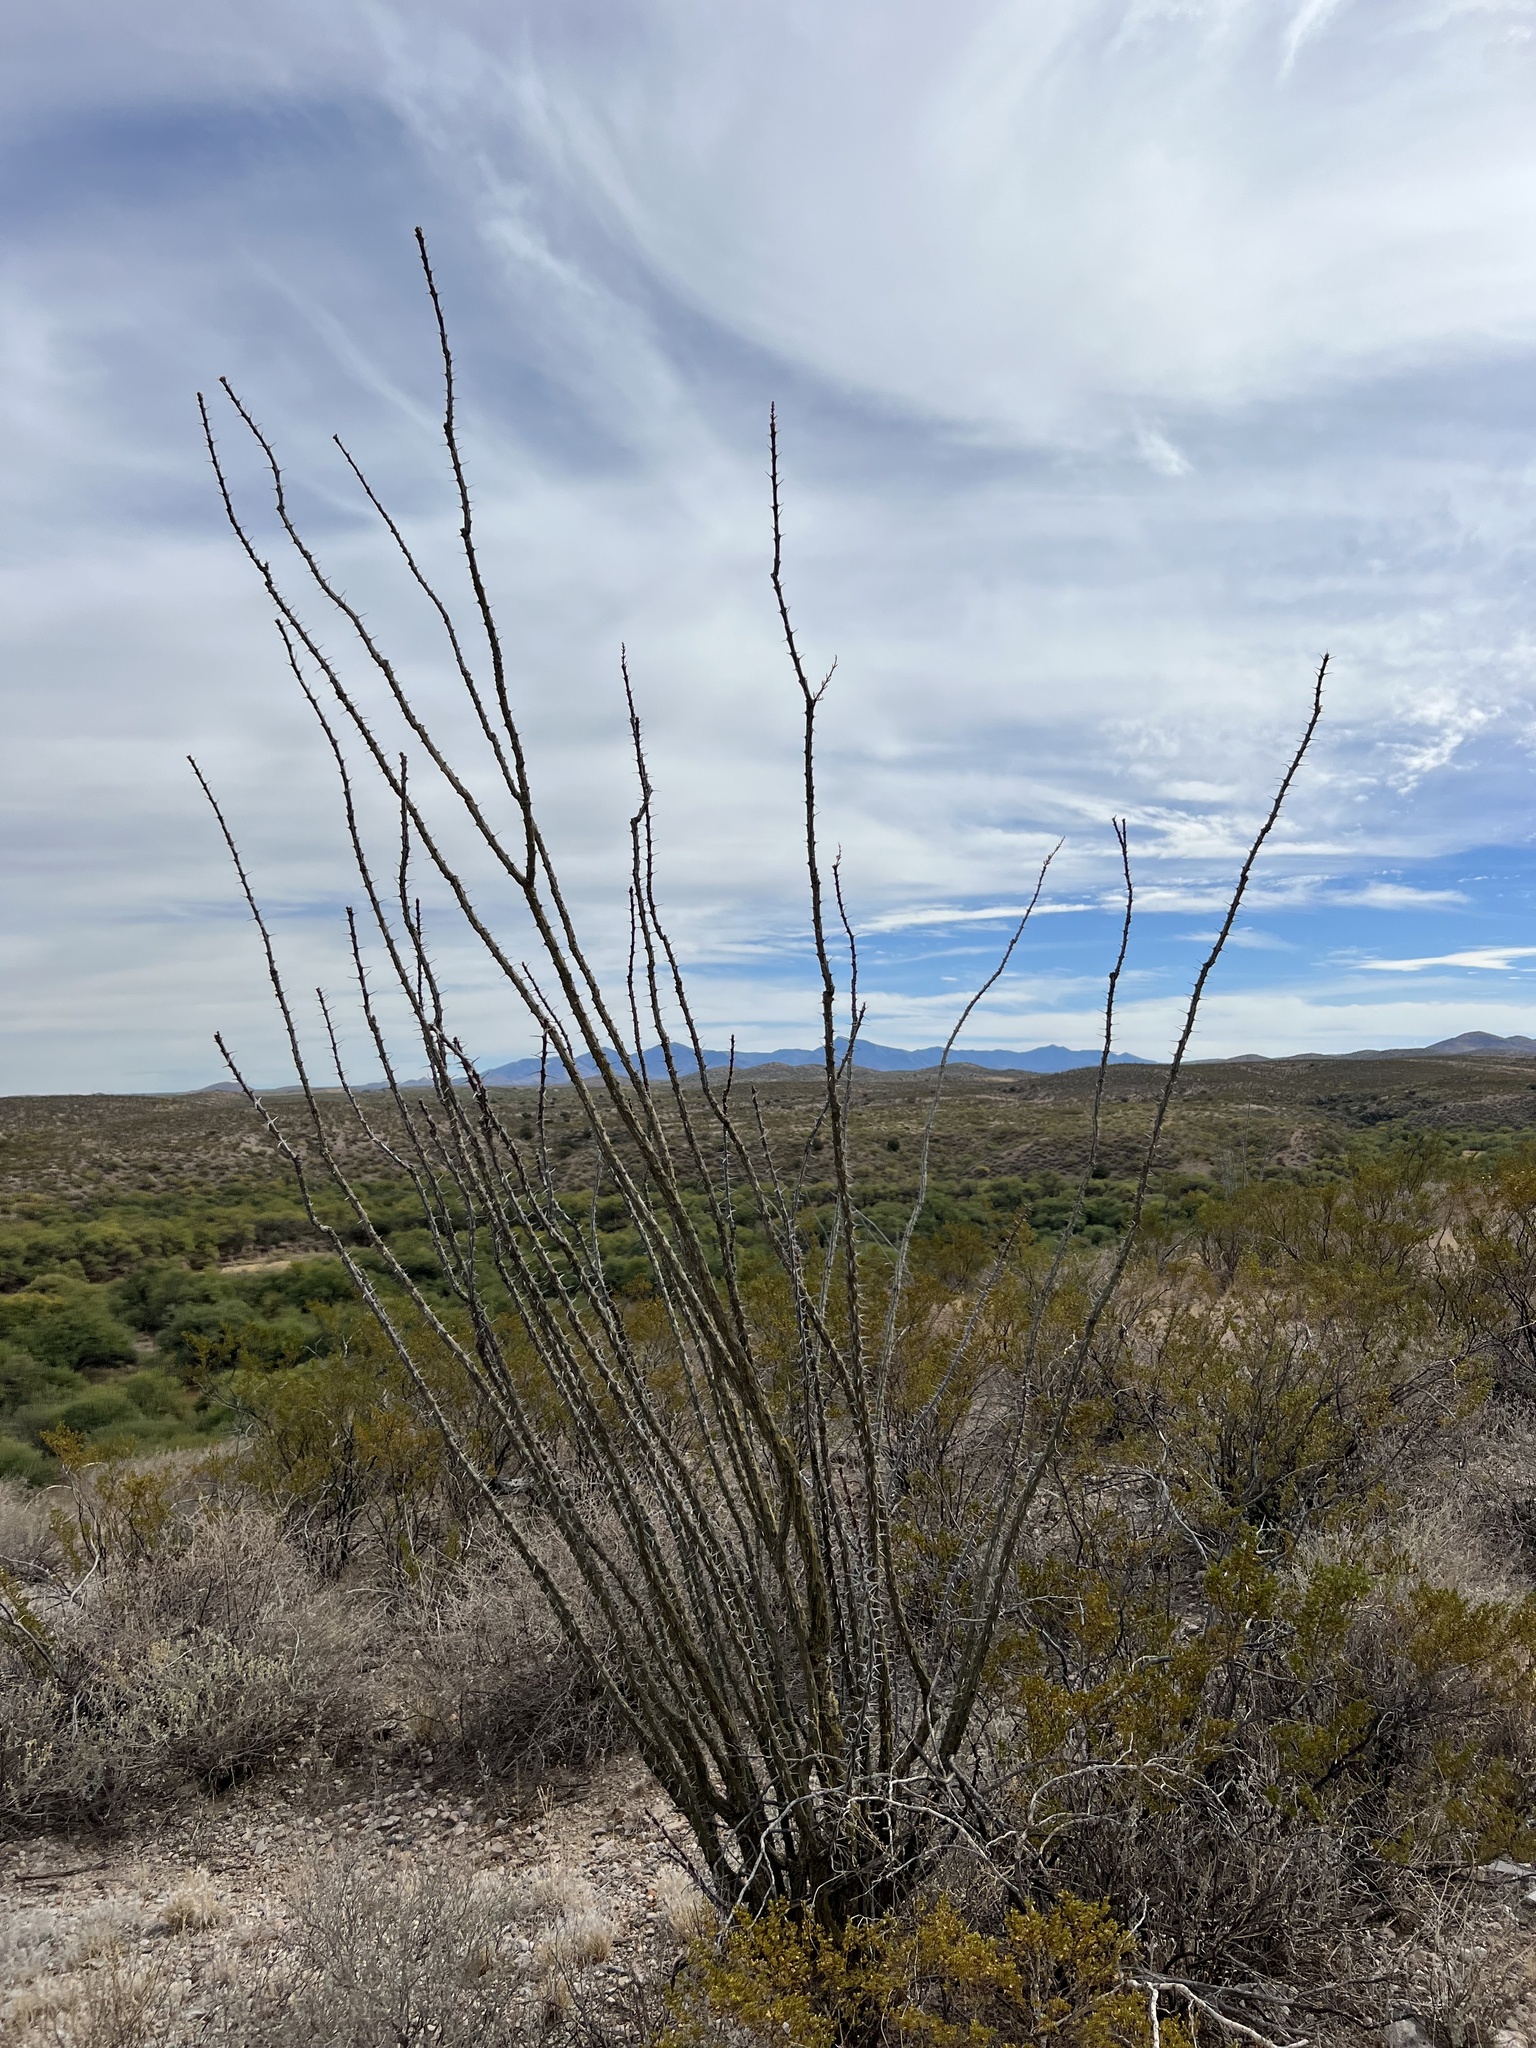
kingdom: Plantae
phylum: Tracheophyta
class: Magnoliopsida
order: Ericales
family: Fouquieriaceae
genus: Fouquieria
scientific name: Fouquieria splendens
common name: Vine-cactus
